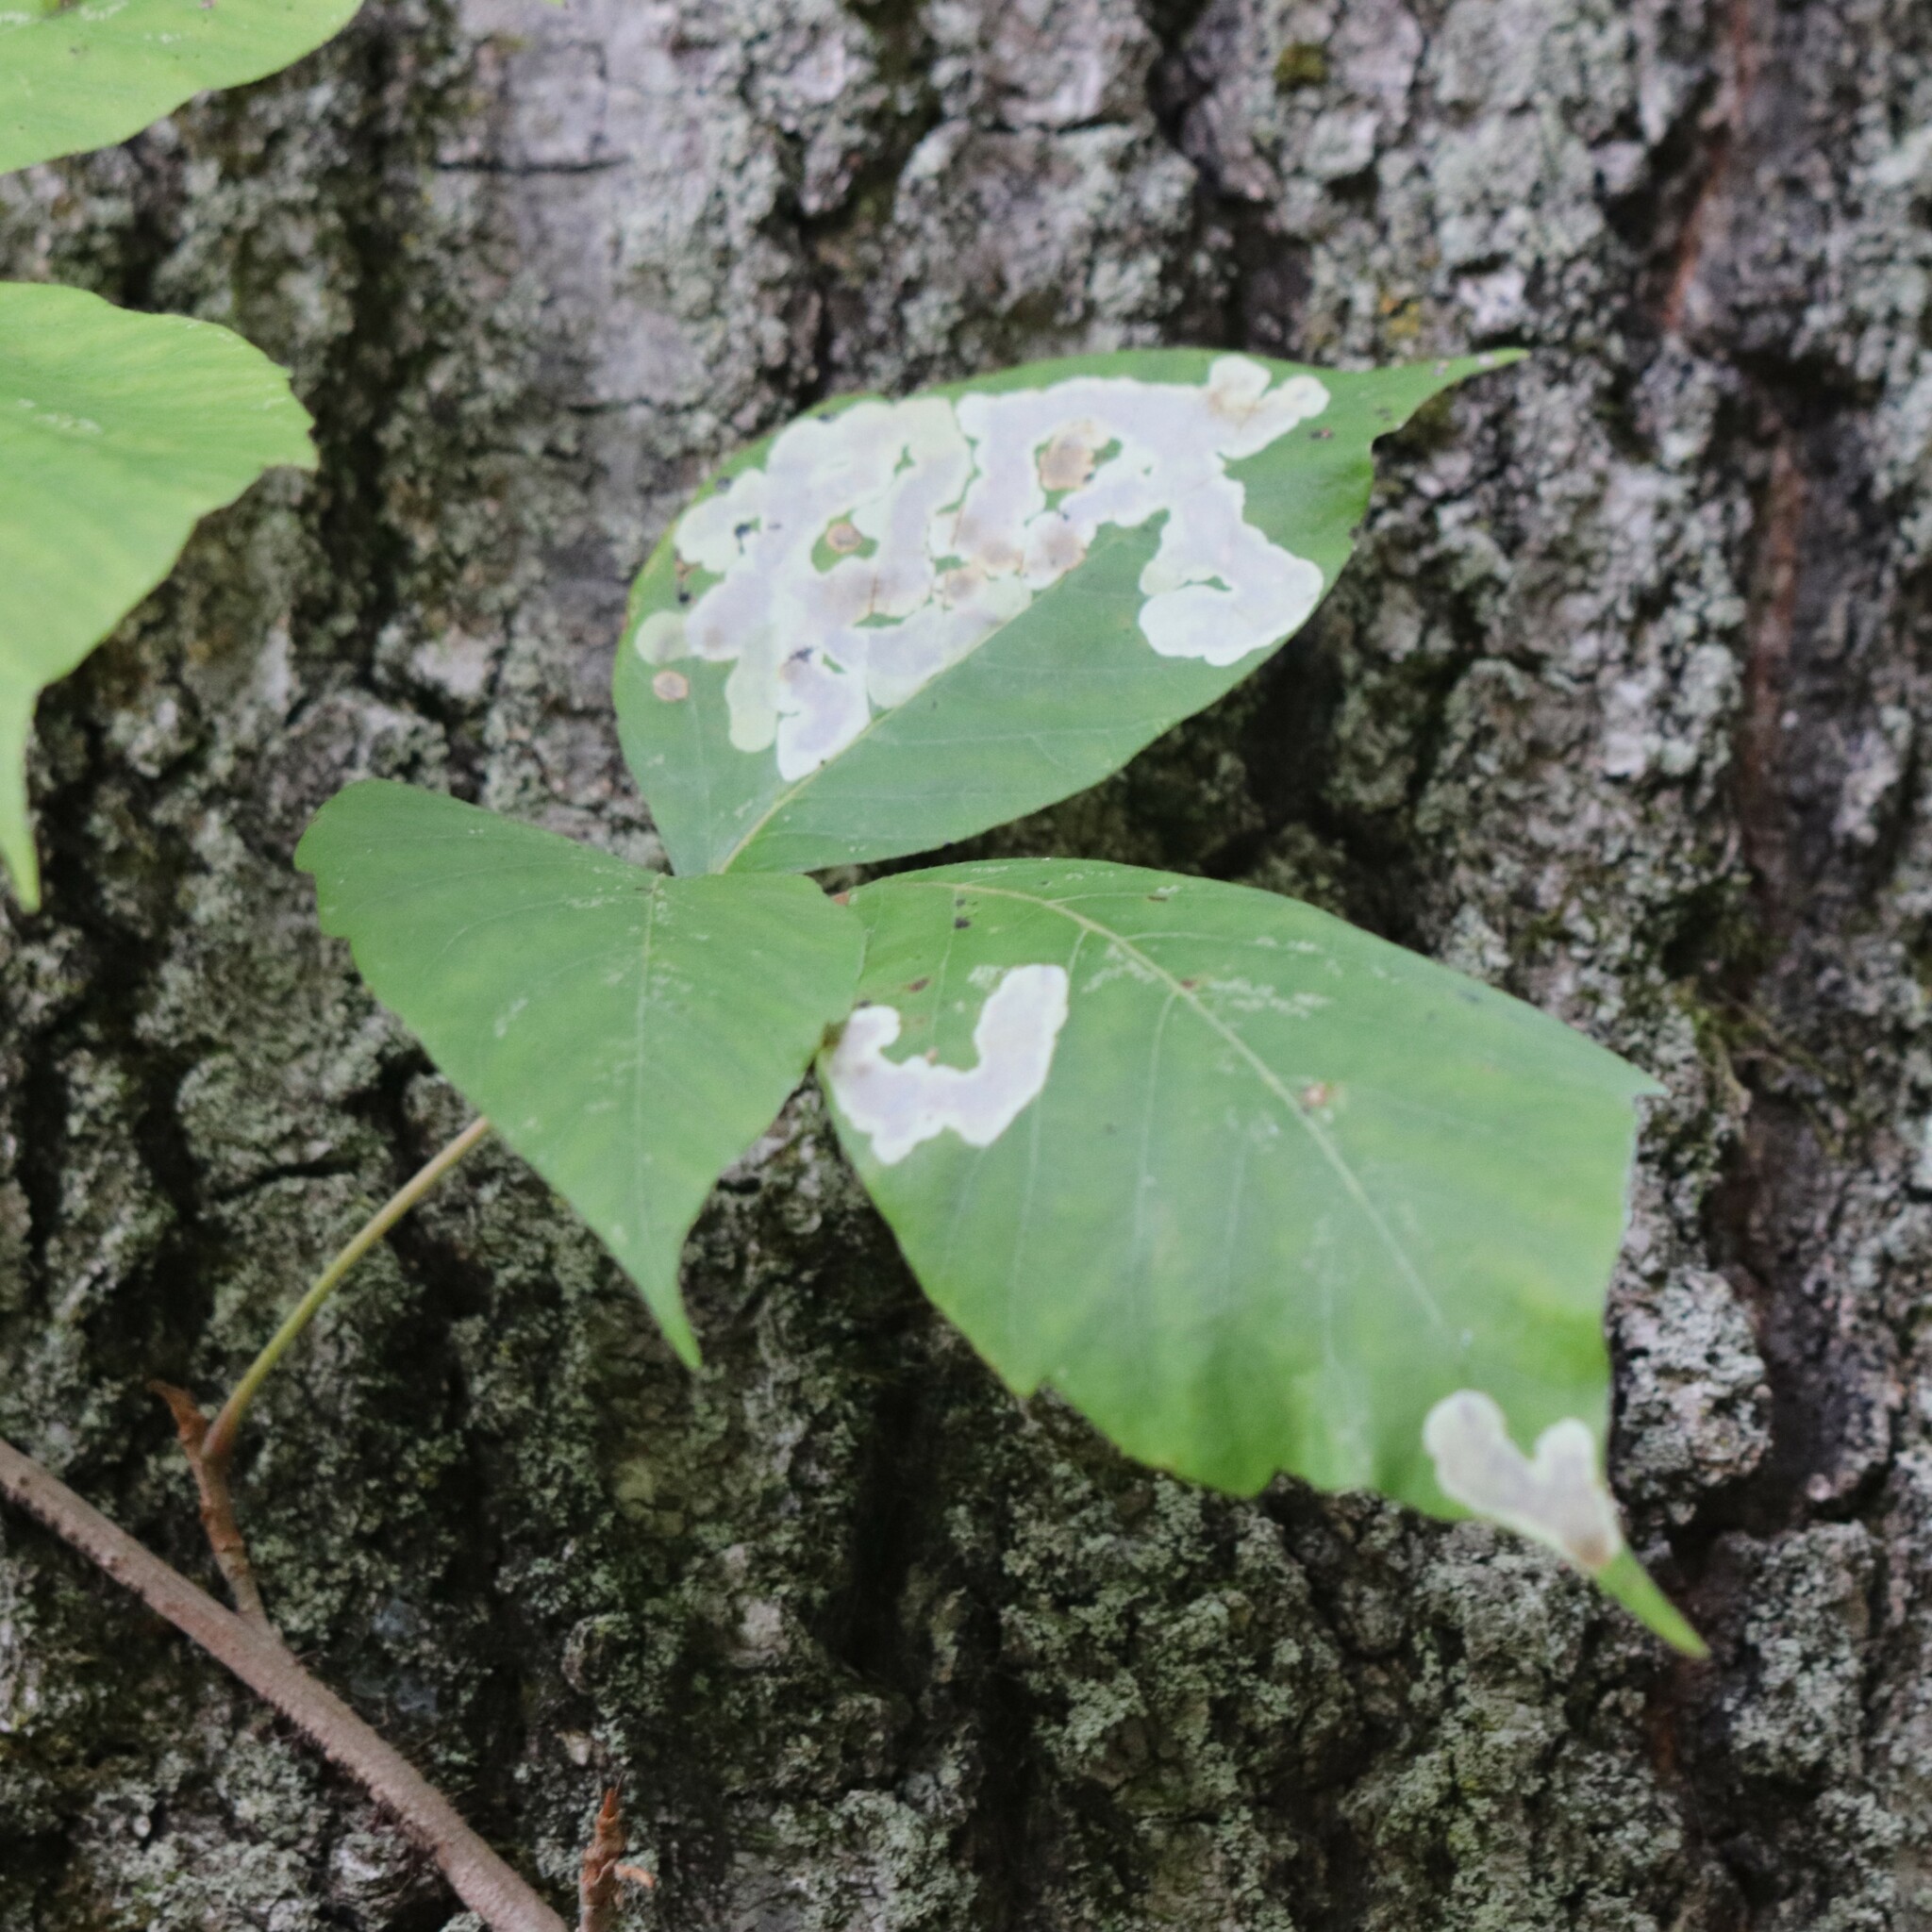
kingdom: Animalia
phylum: Arthropoda
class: Insecta
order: Lepidoptera
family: Gracillariidae
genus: Cameraria
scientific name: Cameraria guttifinitella
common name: Poison ivy leaf-miner moth
